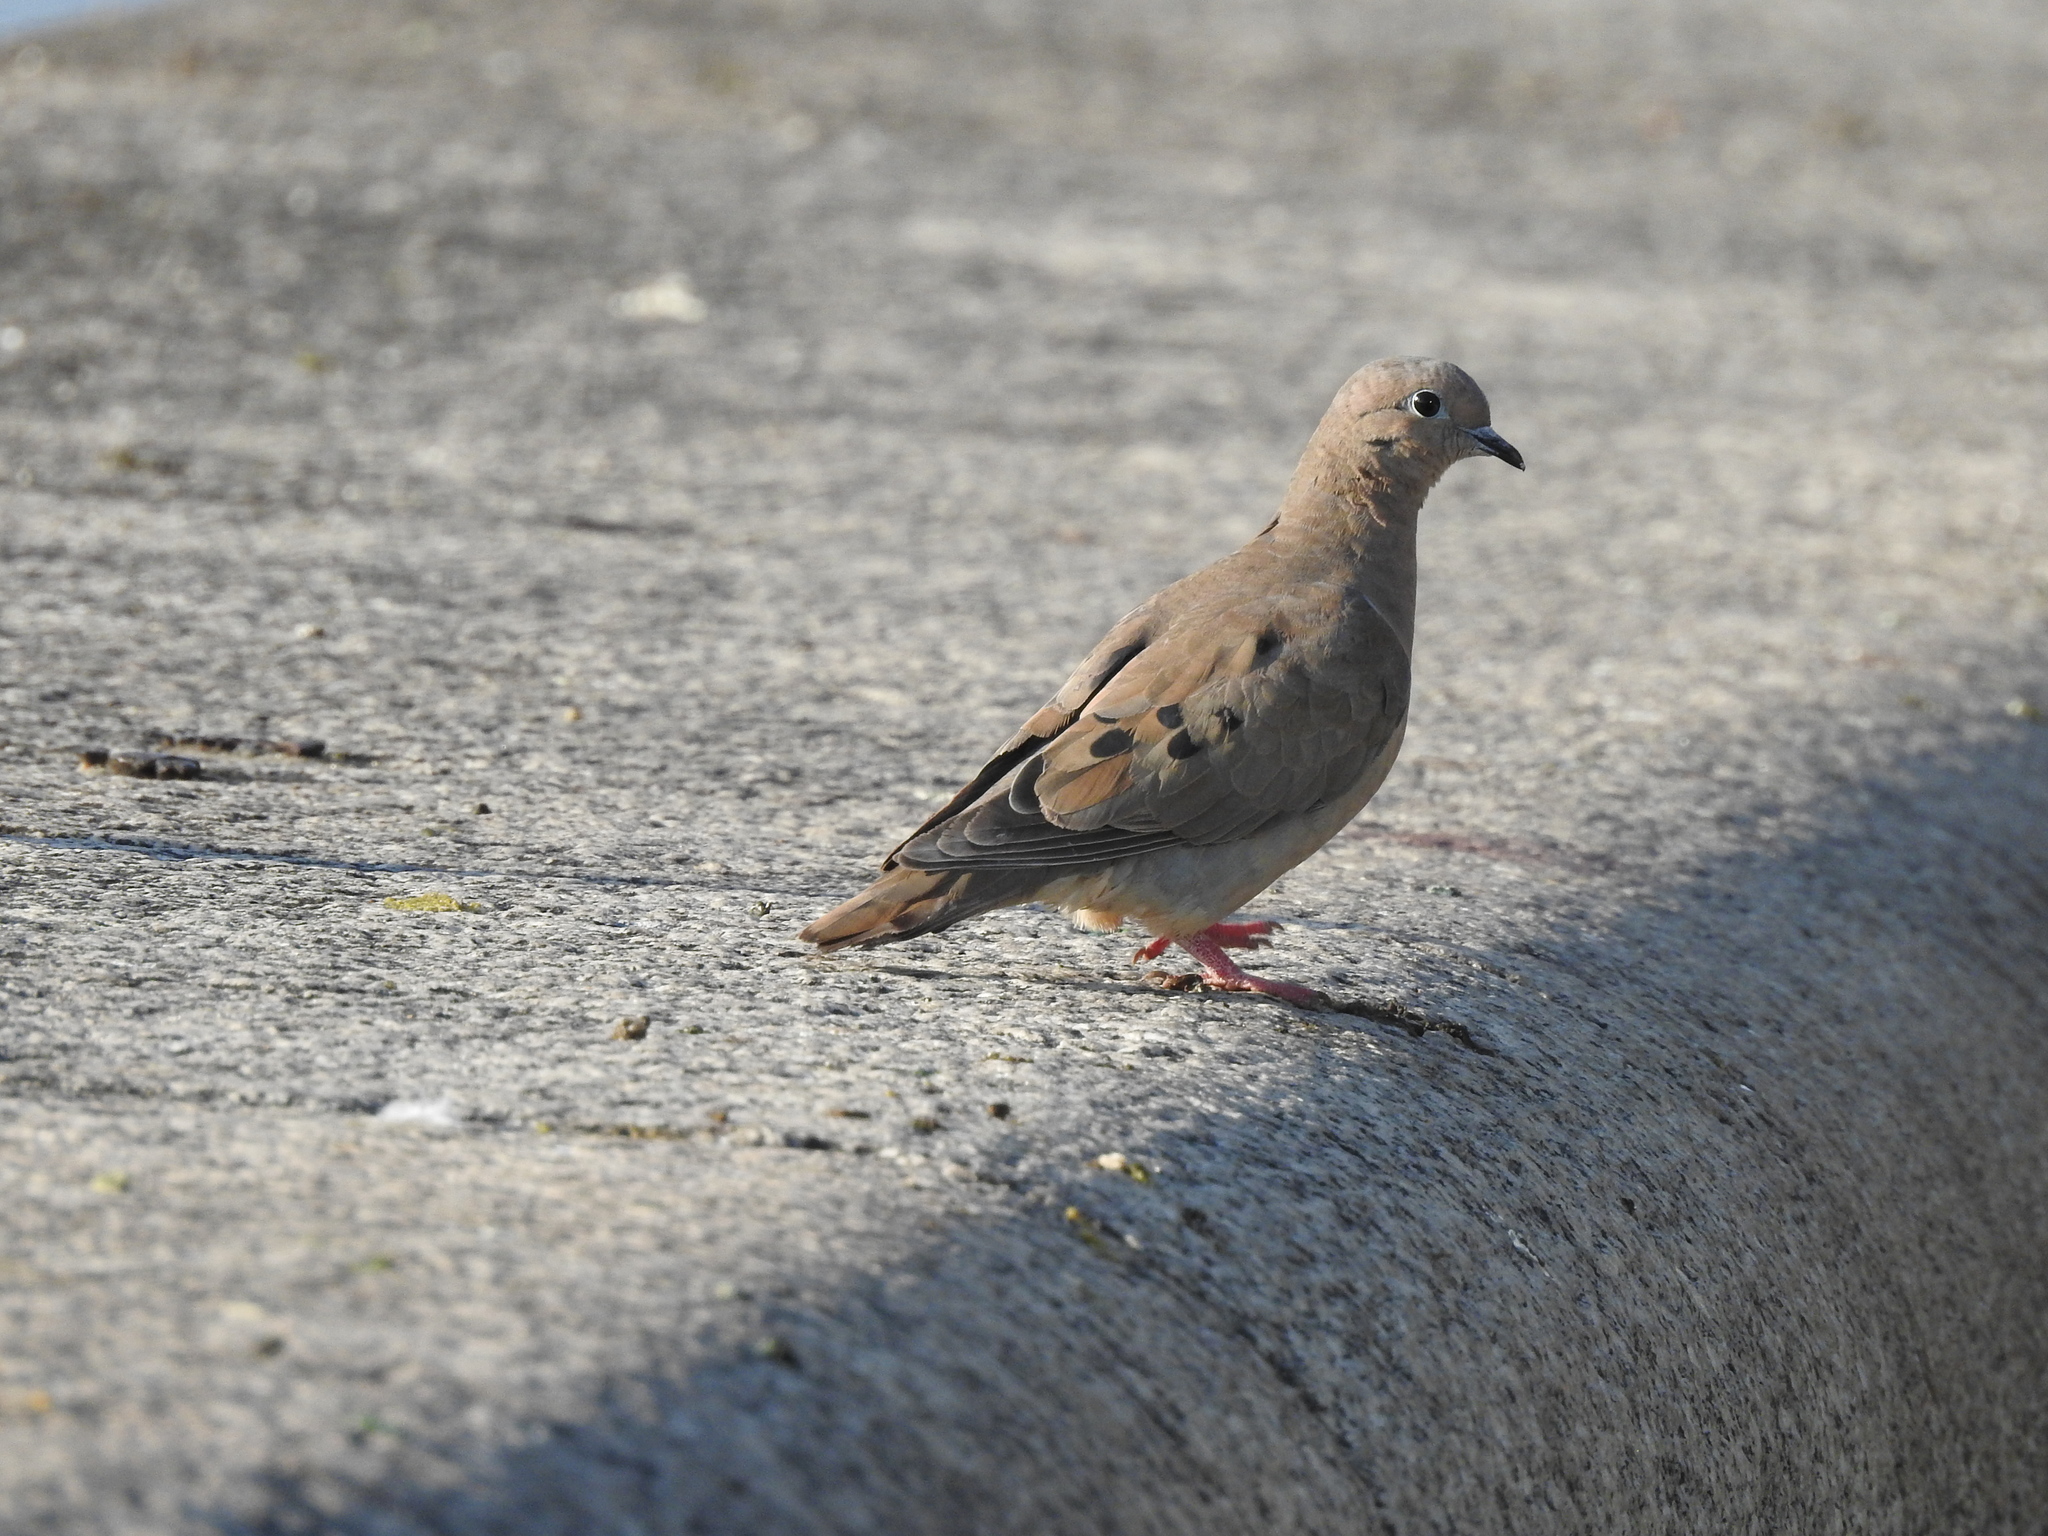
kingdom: Animalia
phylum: Chordata
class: Aves
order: Columbiformes
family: Columbidae
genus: Zenaida
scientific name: Zenaida auriculata
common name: Eared dove
